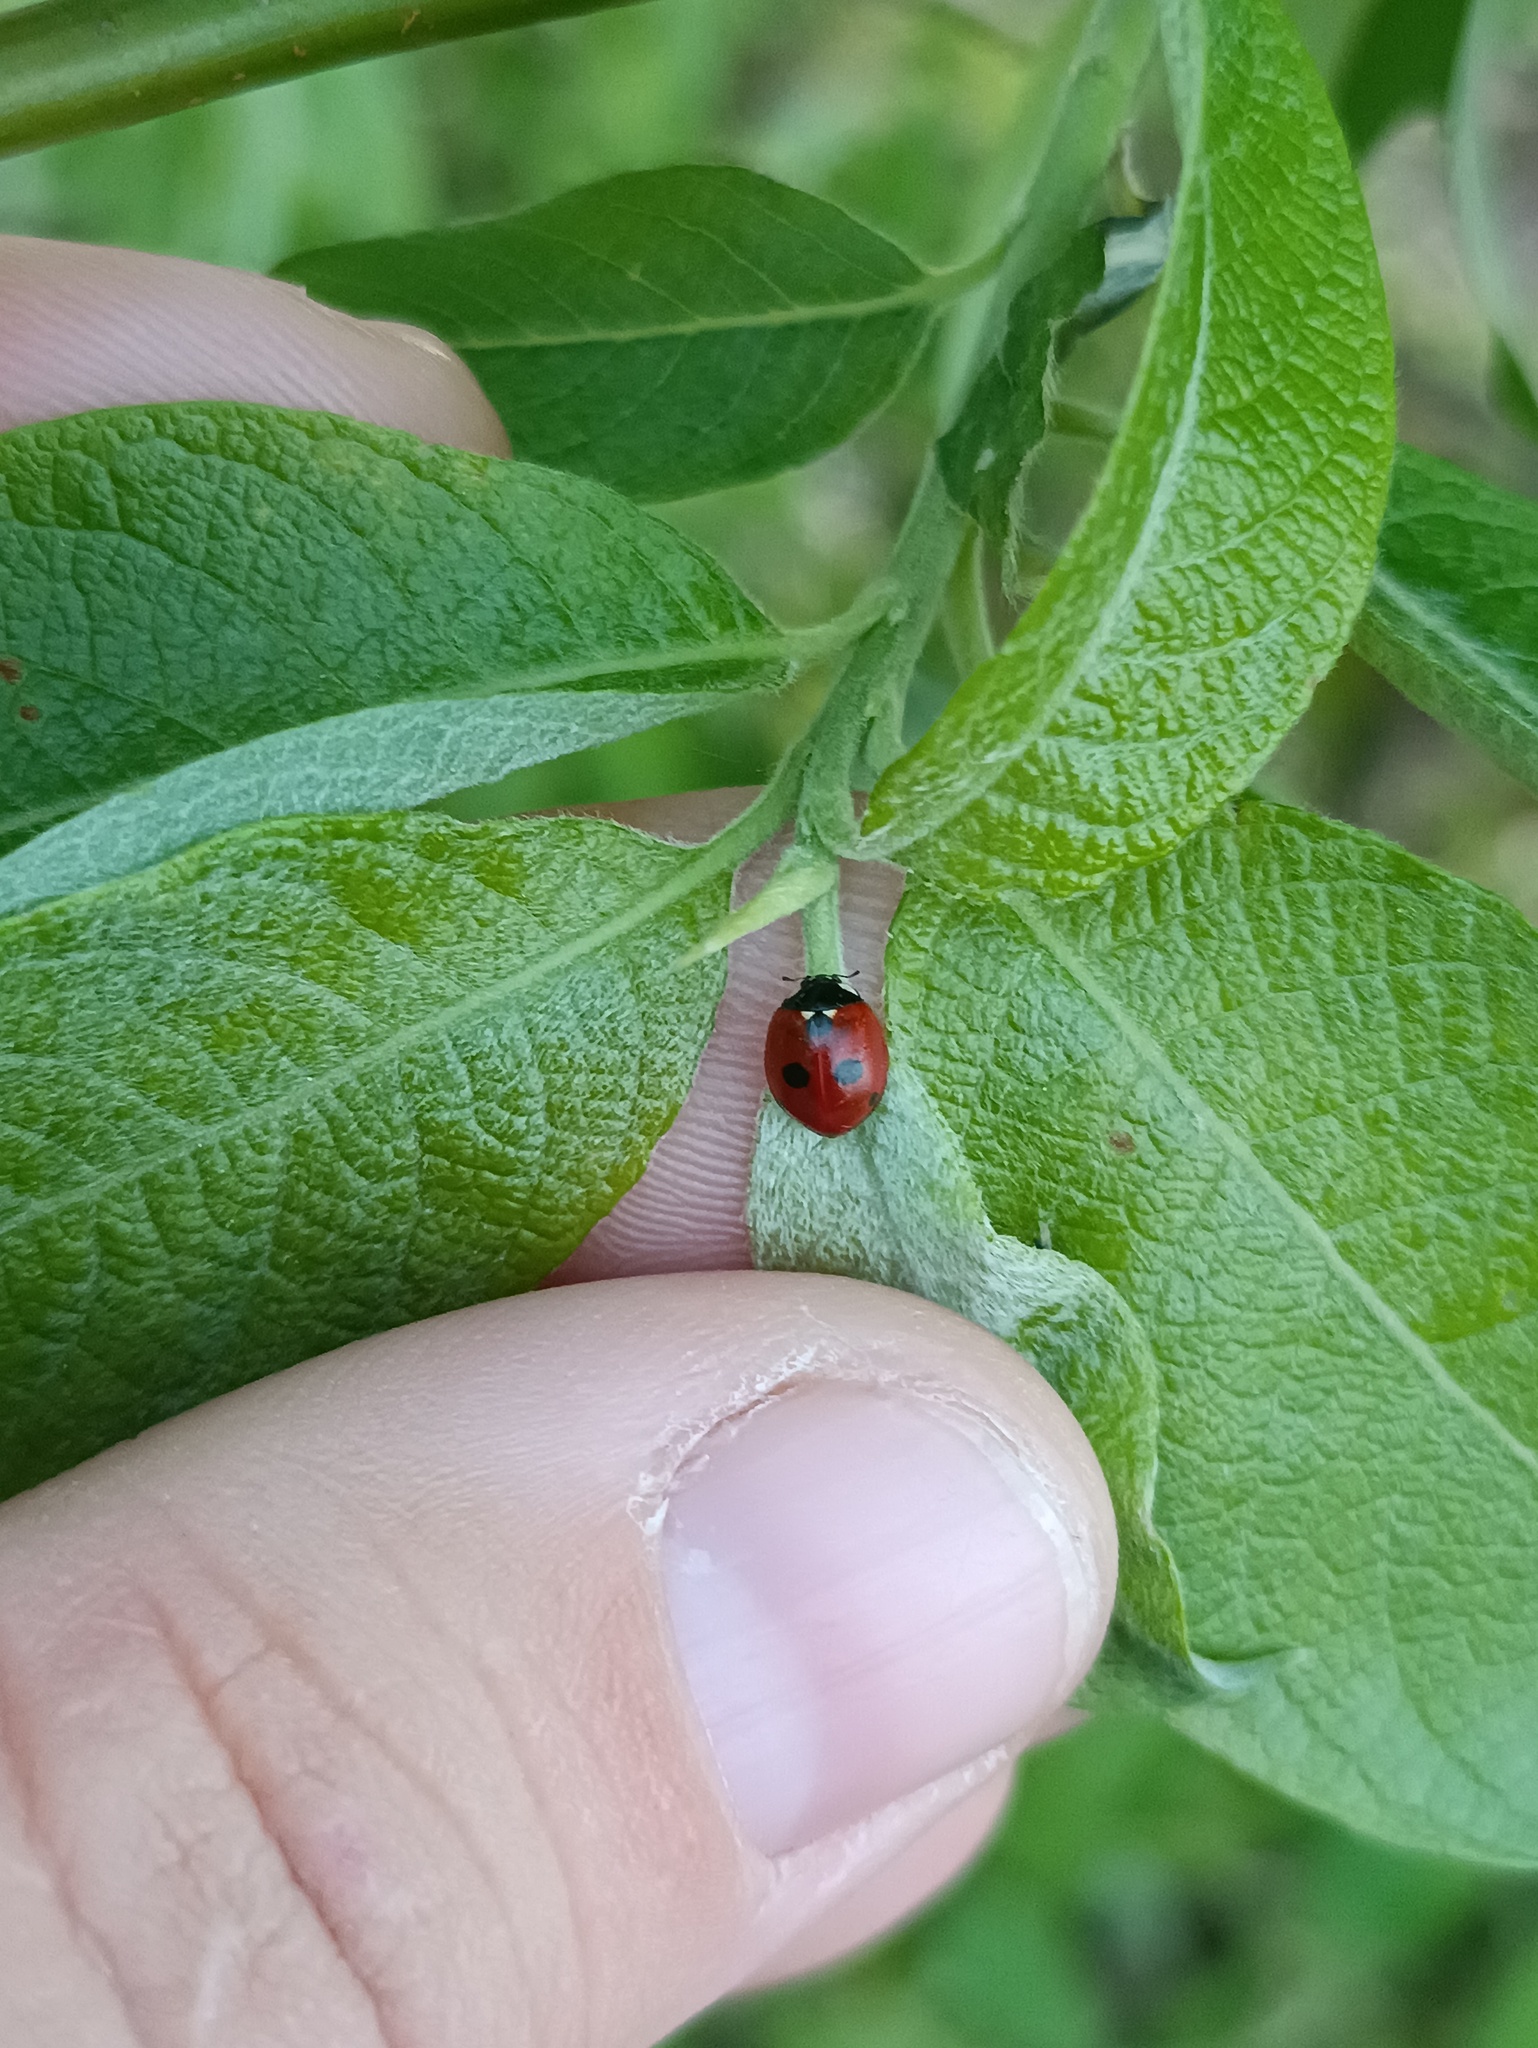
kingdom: Animalia
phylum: Arthropoda
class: Insecta
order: Coleoptera
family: Coccinellidae
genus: Coccinella
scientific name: Coccinella quinquepunctata
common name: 5-spot ladybird
